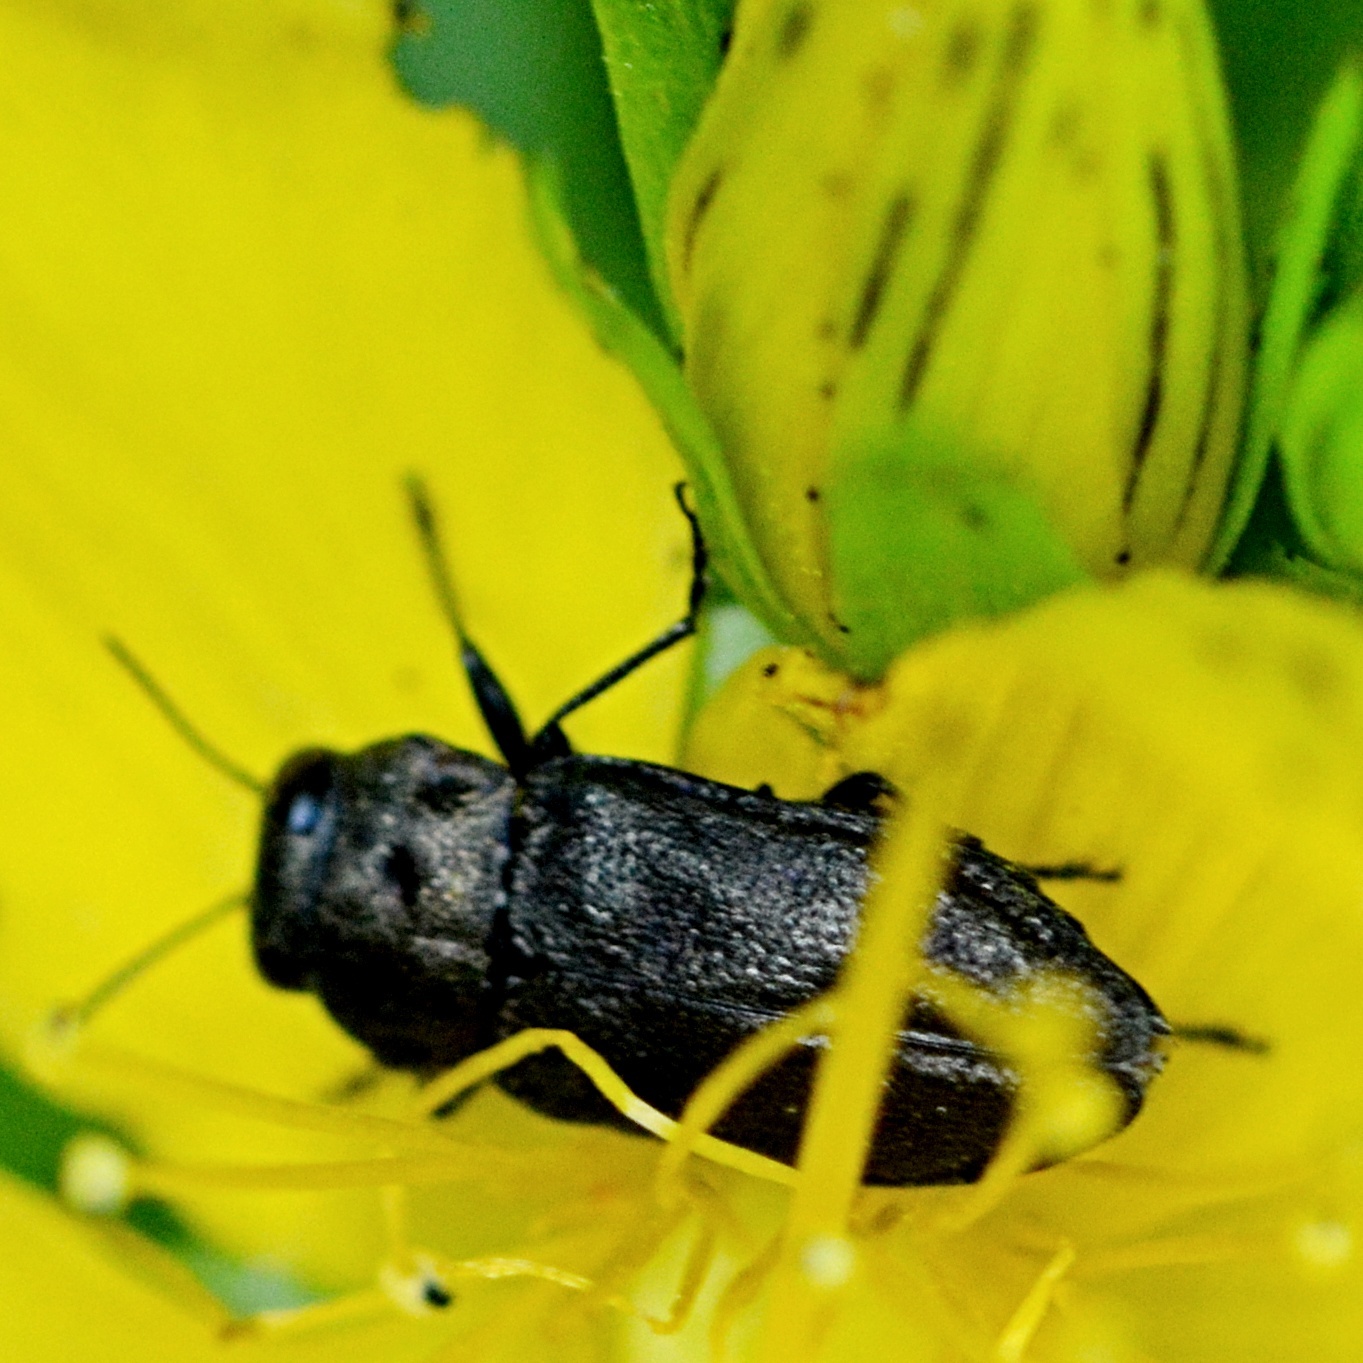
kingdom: Animalia
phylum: Arthropoda
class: Insecta
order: Coleoptera
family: Buprestidae
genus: Anthaxia
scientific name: Anthaxia quadripunctata
